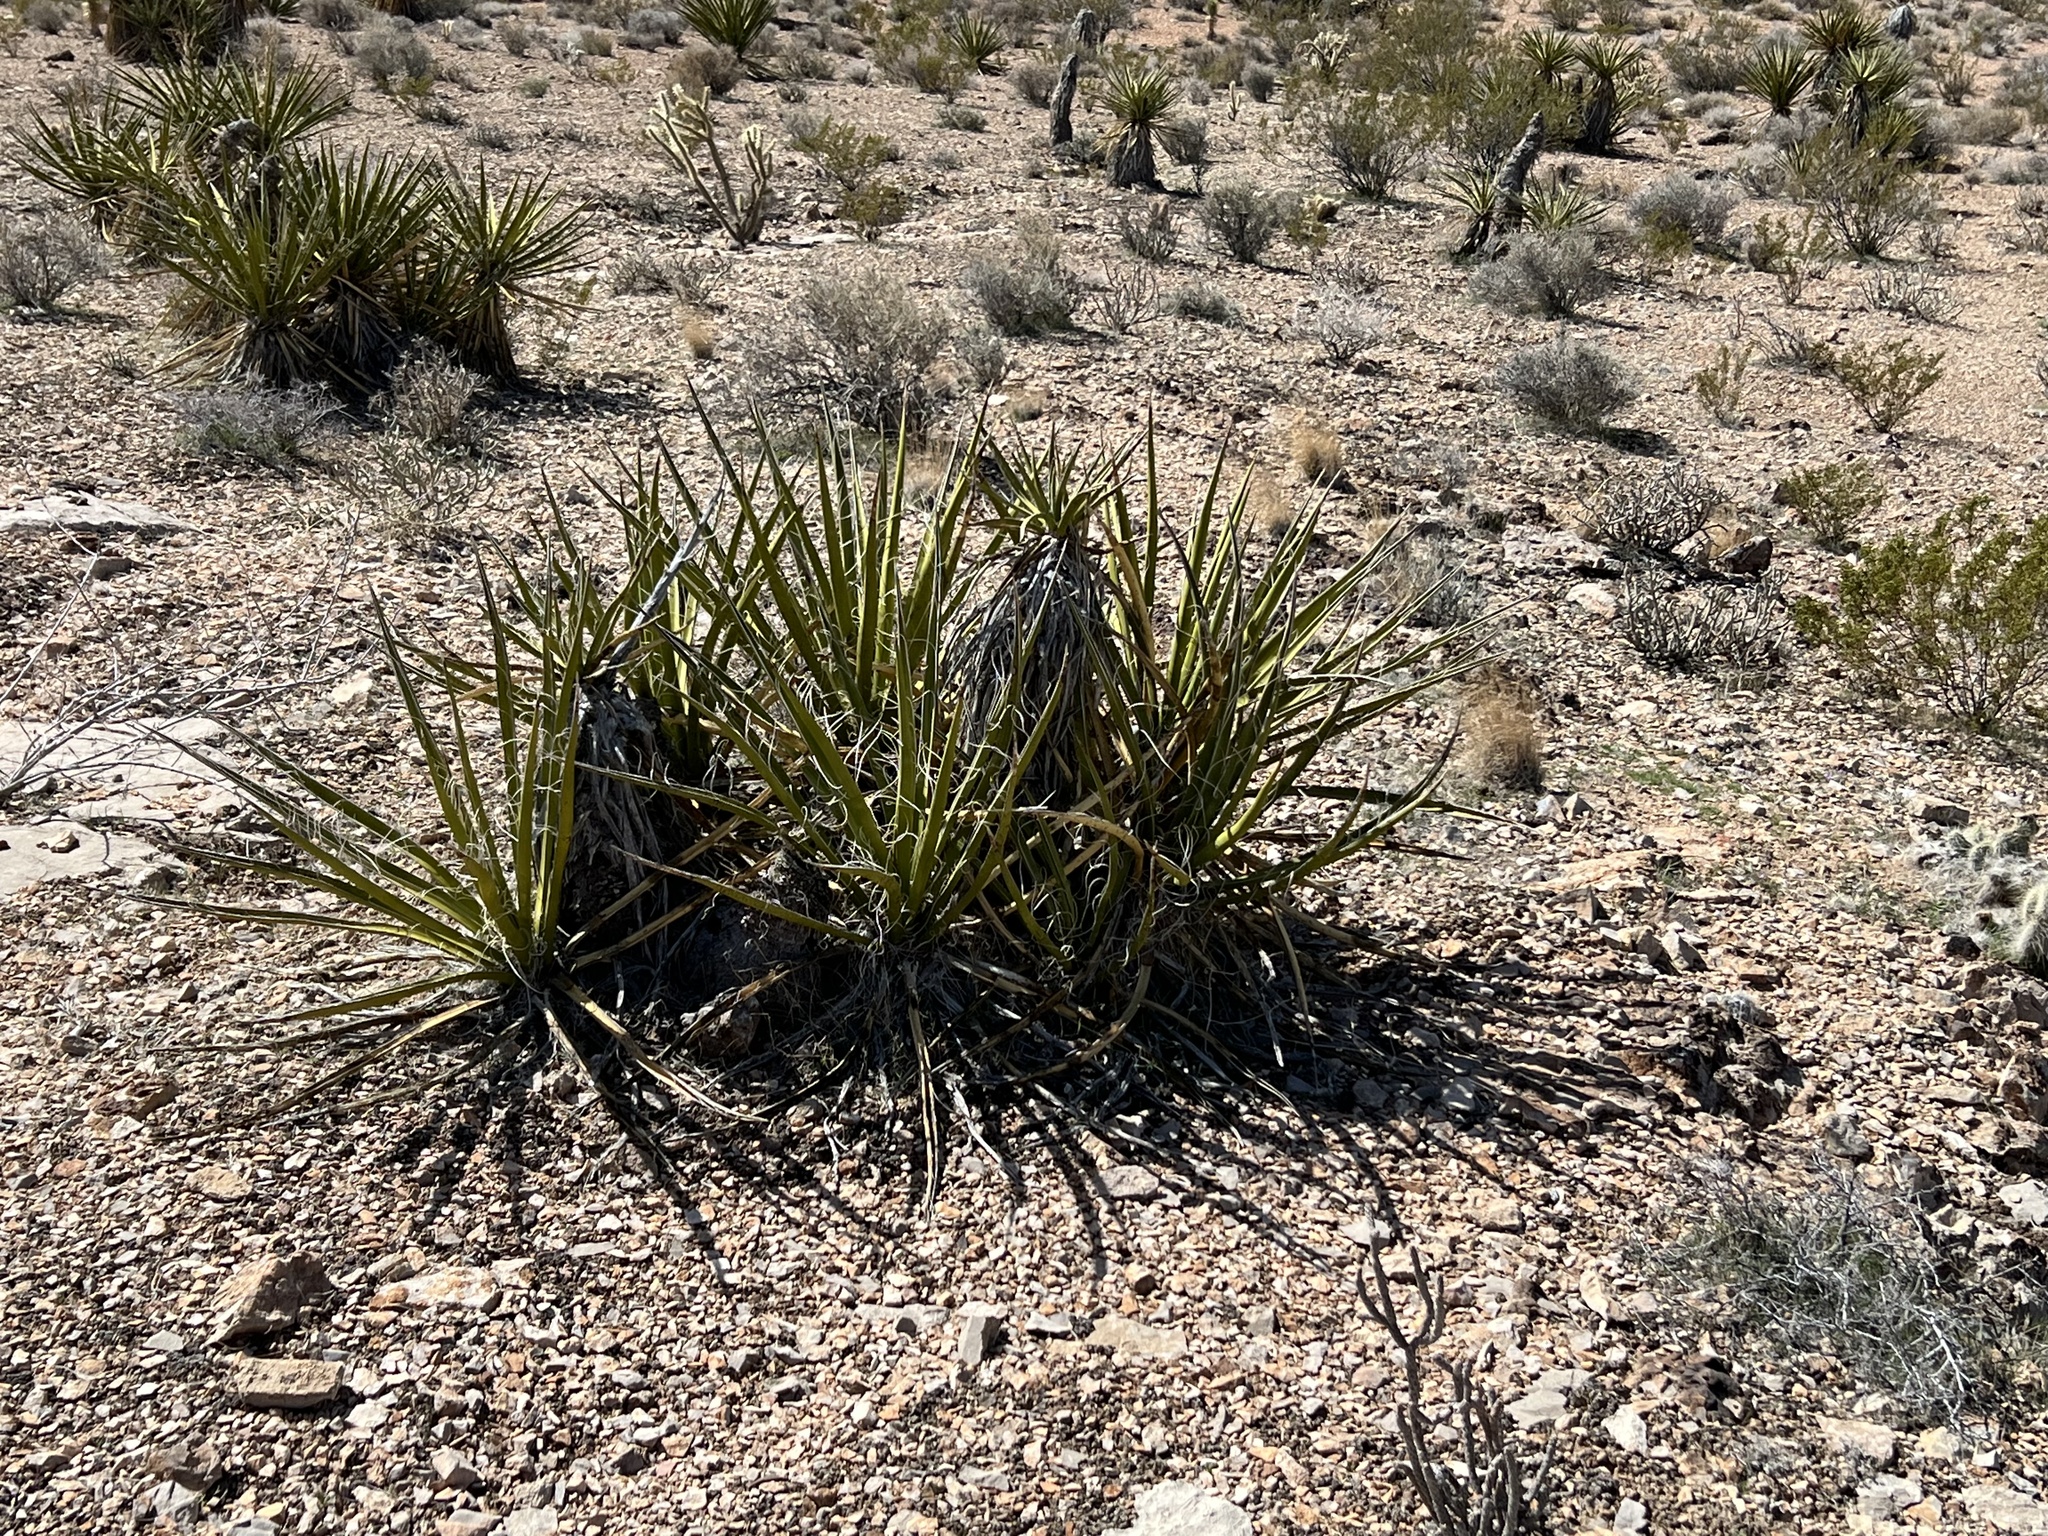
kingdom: Plantae
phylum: Tracheophyta
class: Liliopsida
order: Asparagales
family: Asparagaceae
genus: Yucca
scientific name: Yucca schidigera
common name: Mojave yucca
